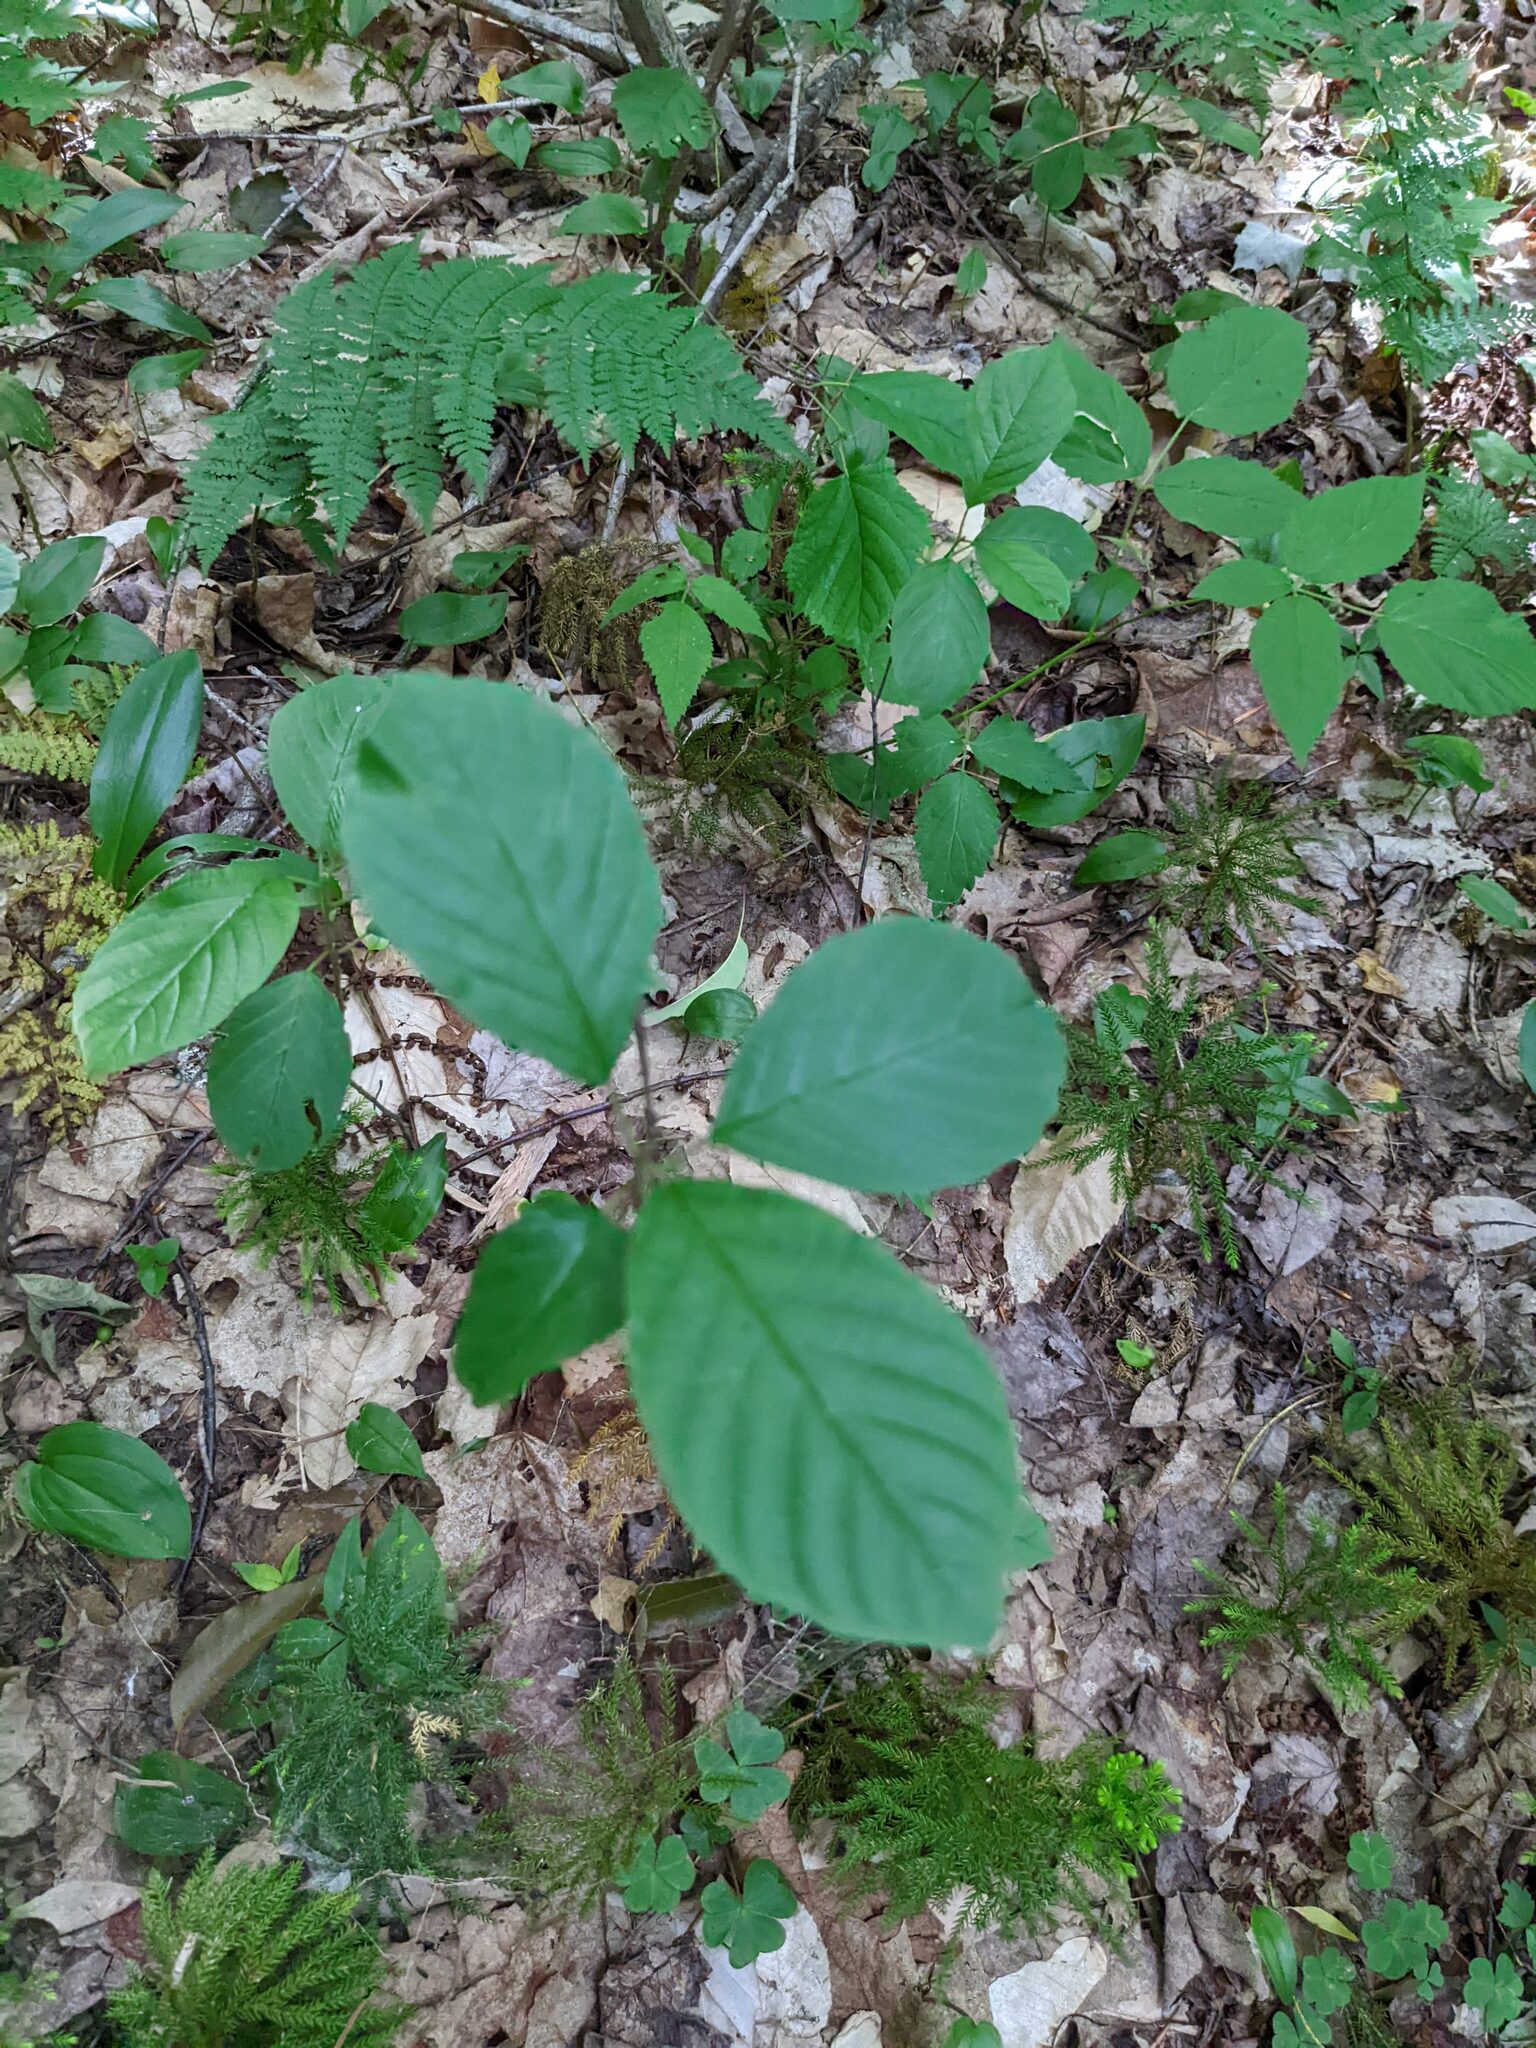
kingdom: Plantae
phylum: Tracheophyta
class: Magnoliopsida
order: Rosales
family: Rhamnaceae
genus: Frangula
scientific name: Frangula alnus
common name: Alder buckthorn
